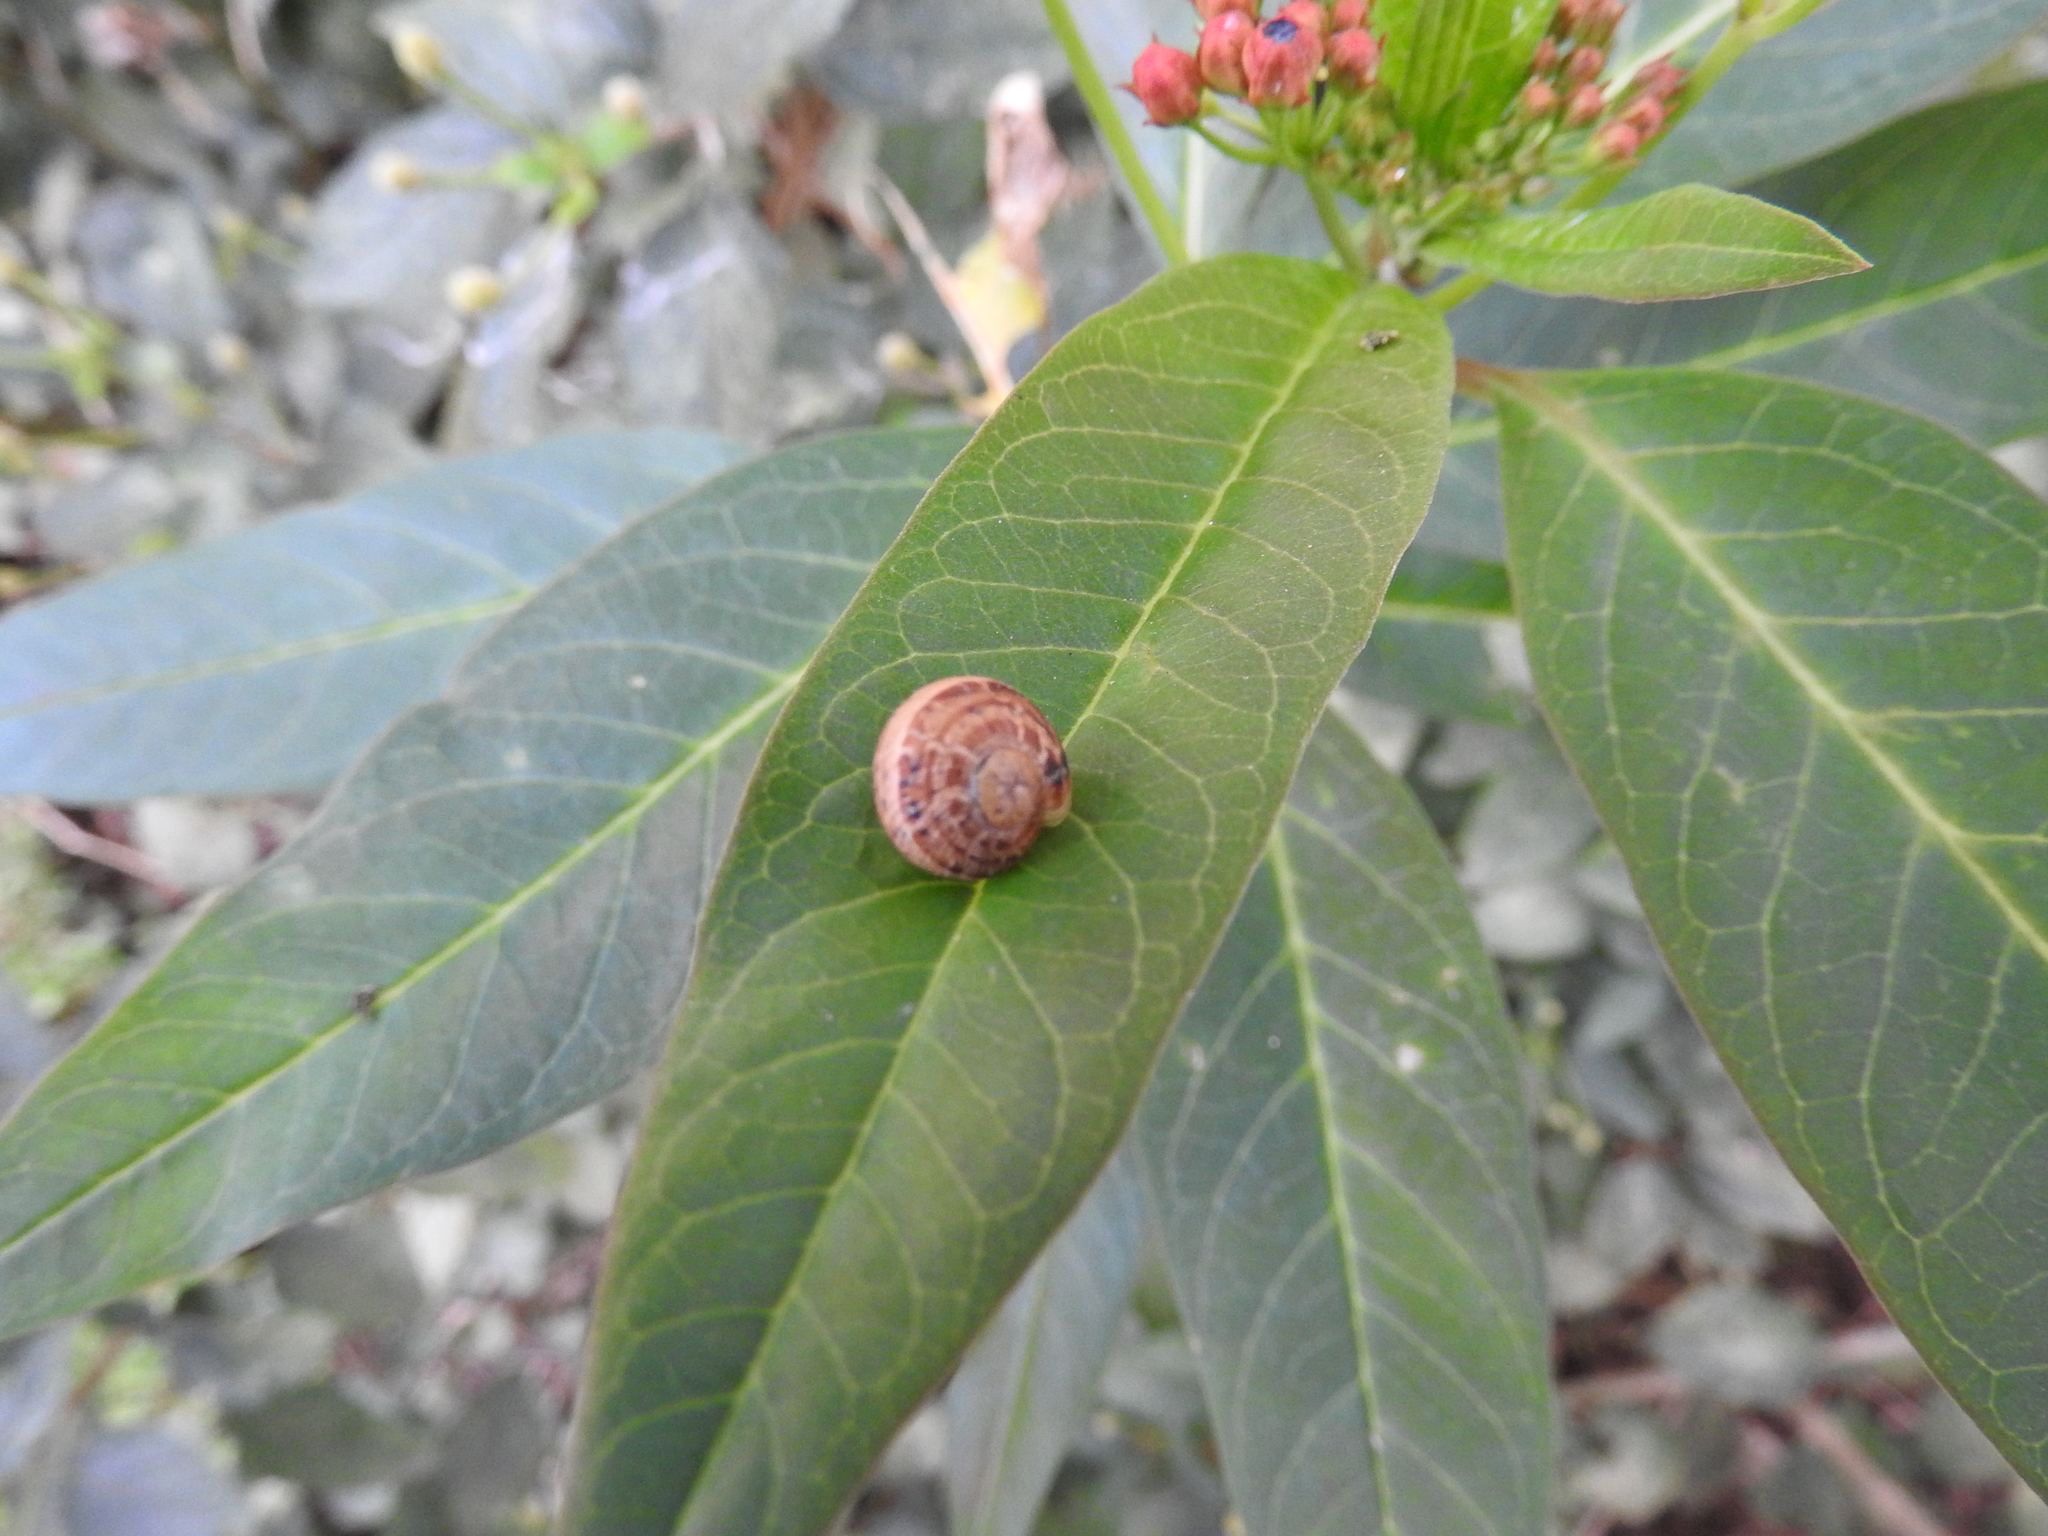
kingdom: Animalia
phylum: Mollusca
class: Gastropoda
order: Stylommatophora
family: Helicidae
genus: Cornu
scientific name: Cornu aspersum
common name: Brown garden snail
